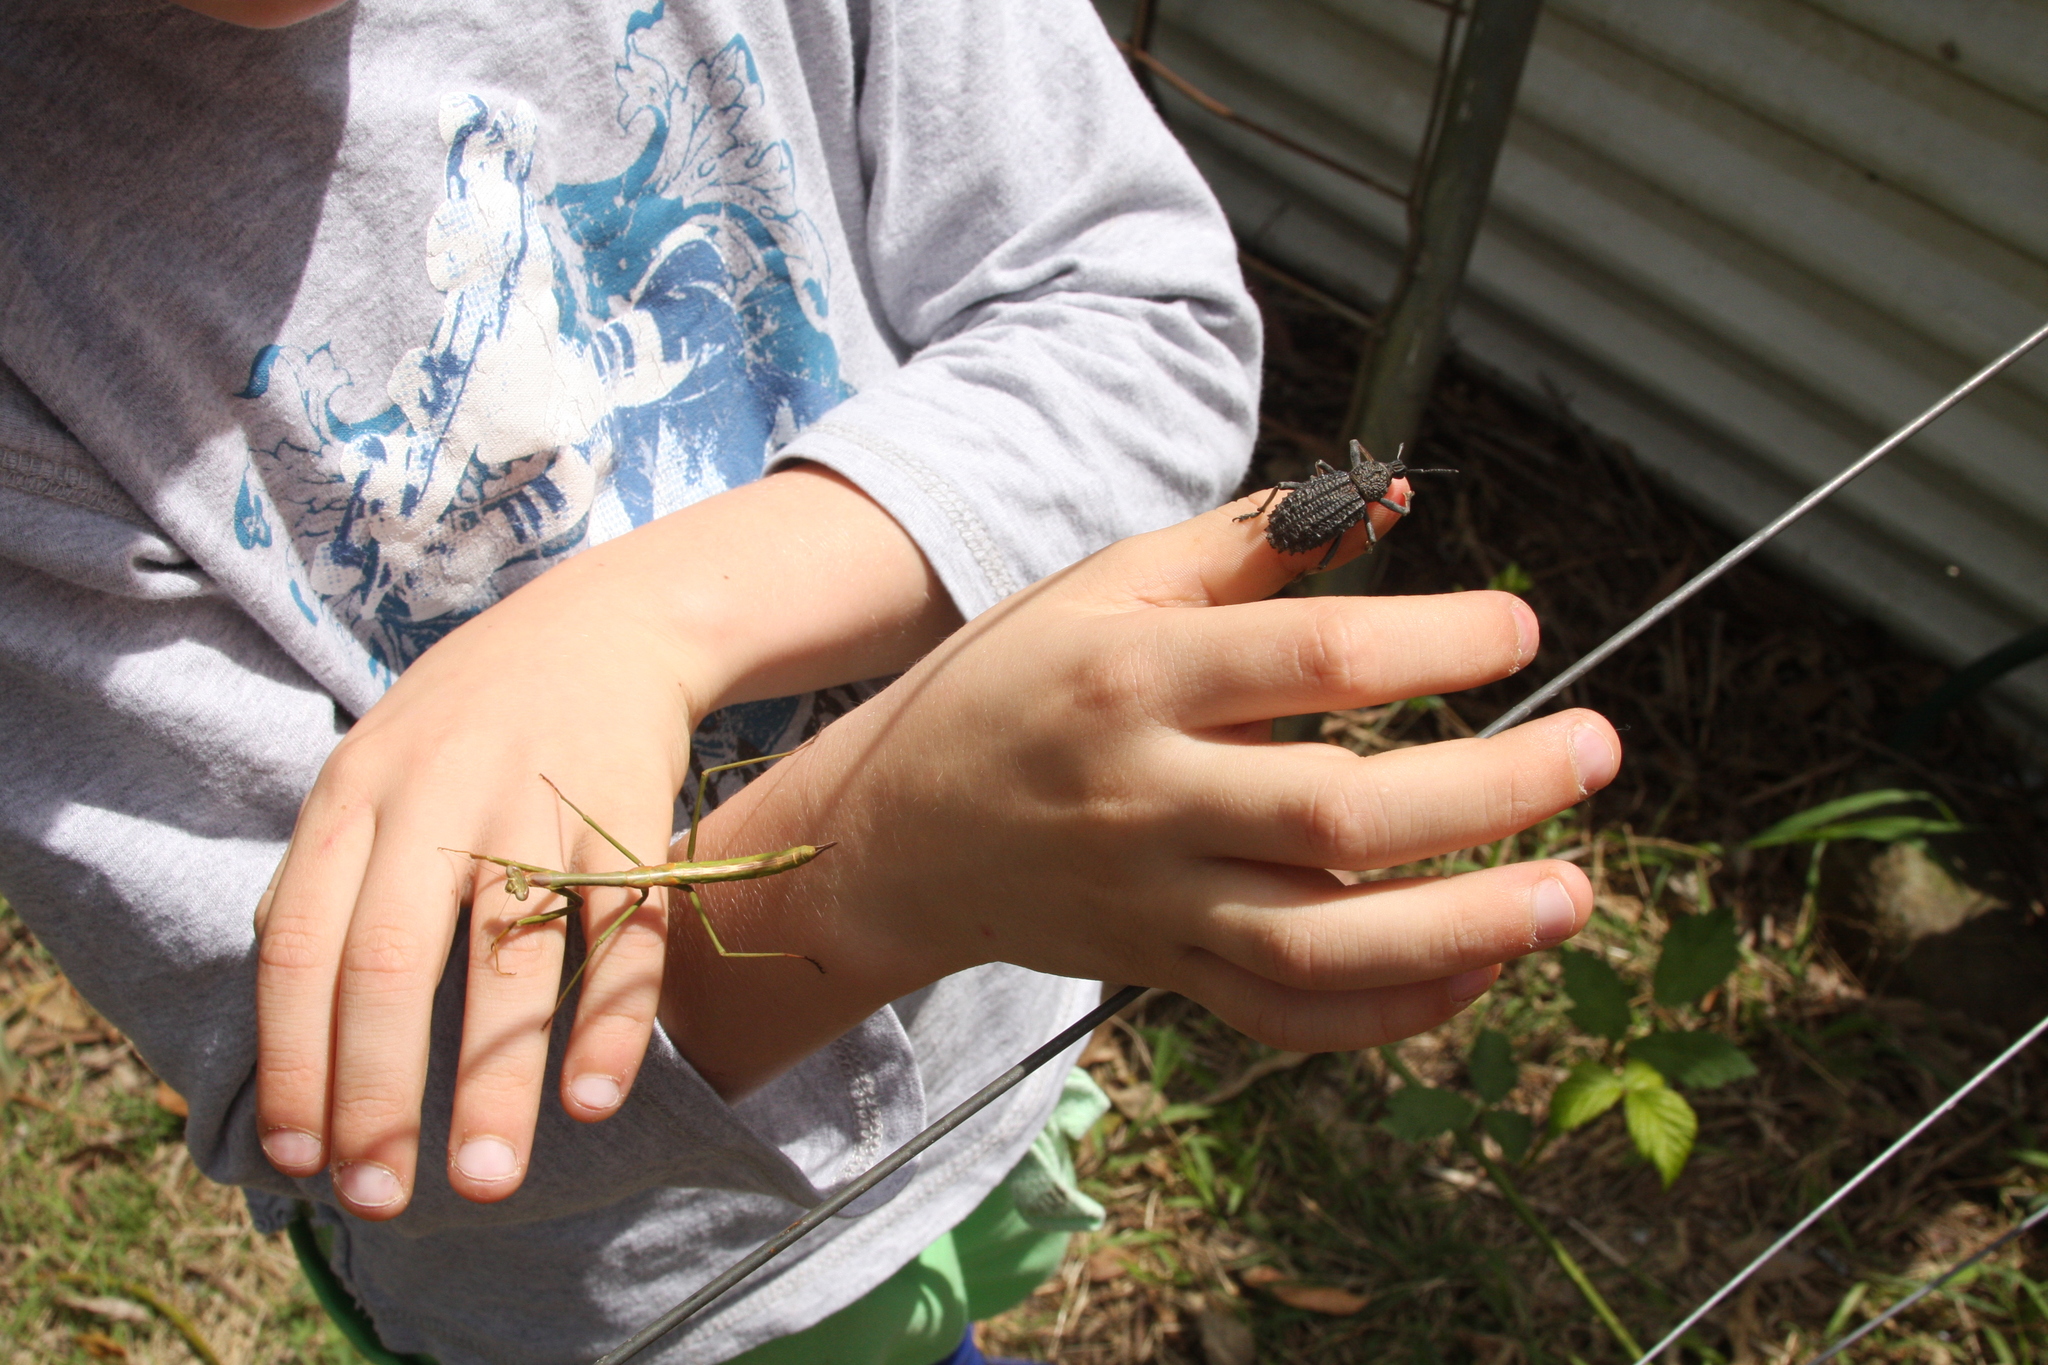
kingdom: Animalia
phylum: Arthropoda
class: Insecta
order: Mantodea
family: Mantidae
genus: Archimantis
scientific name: Archimantis sobrina
